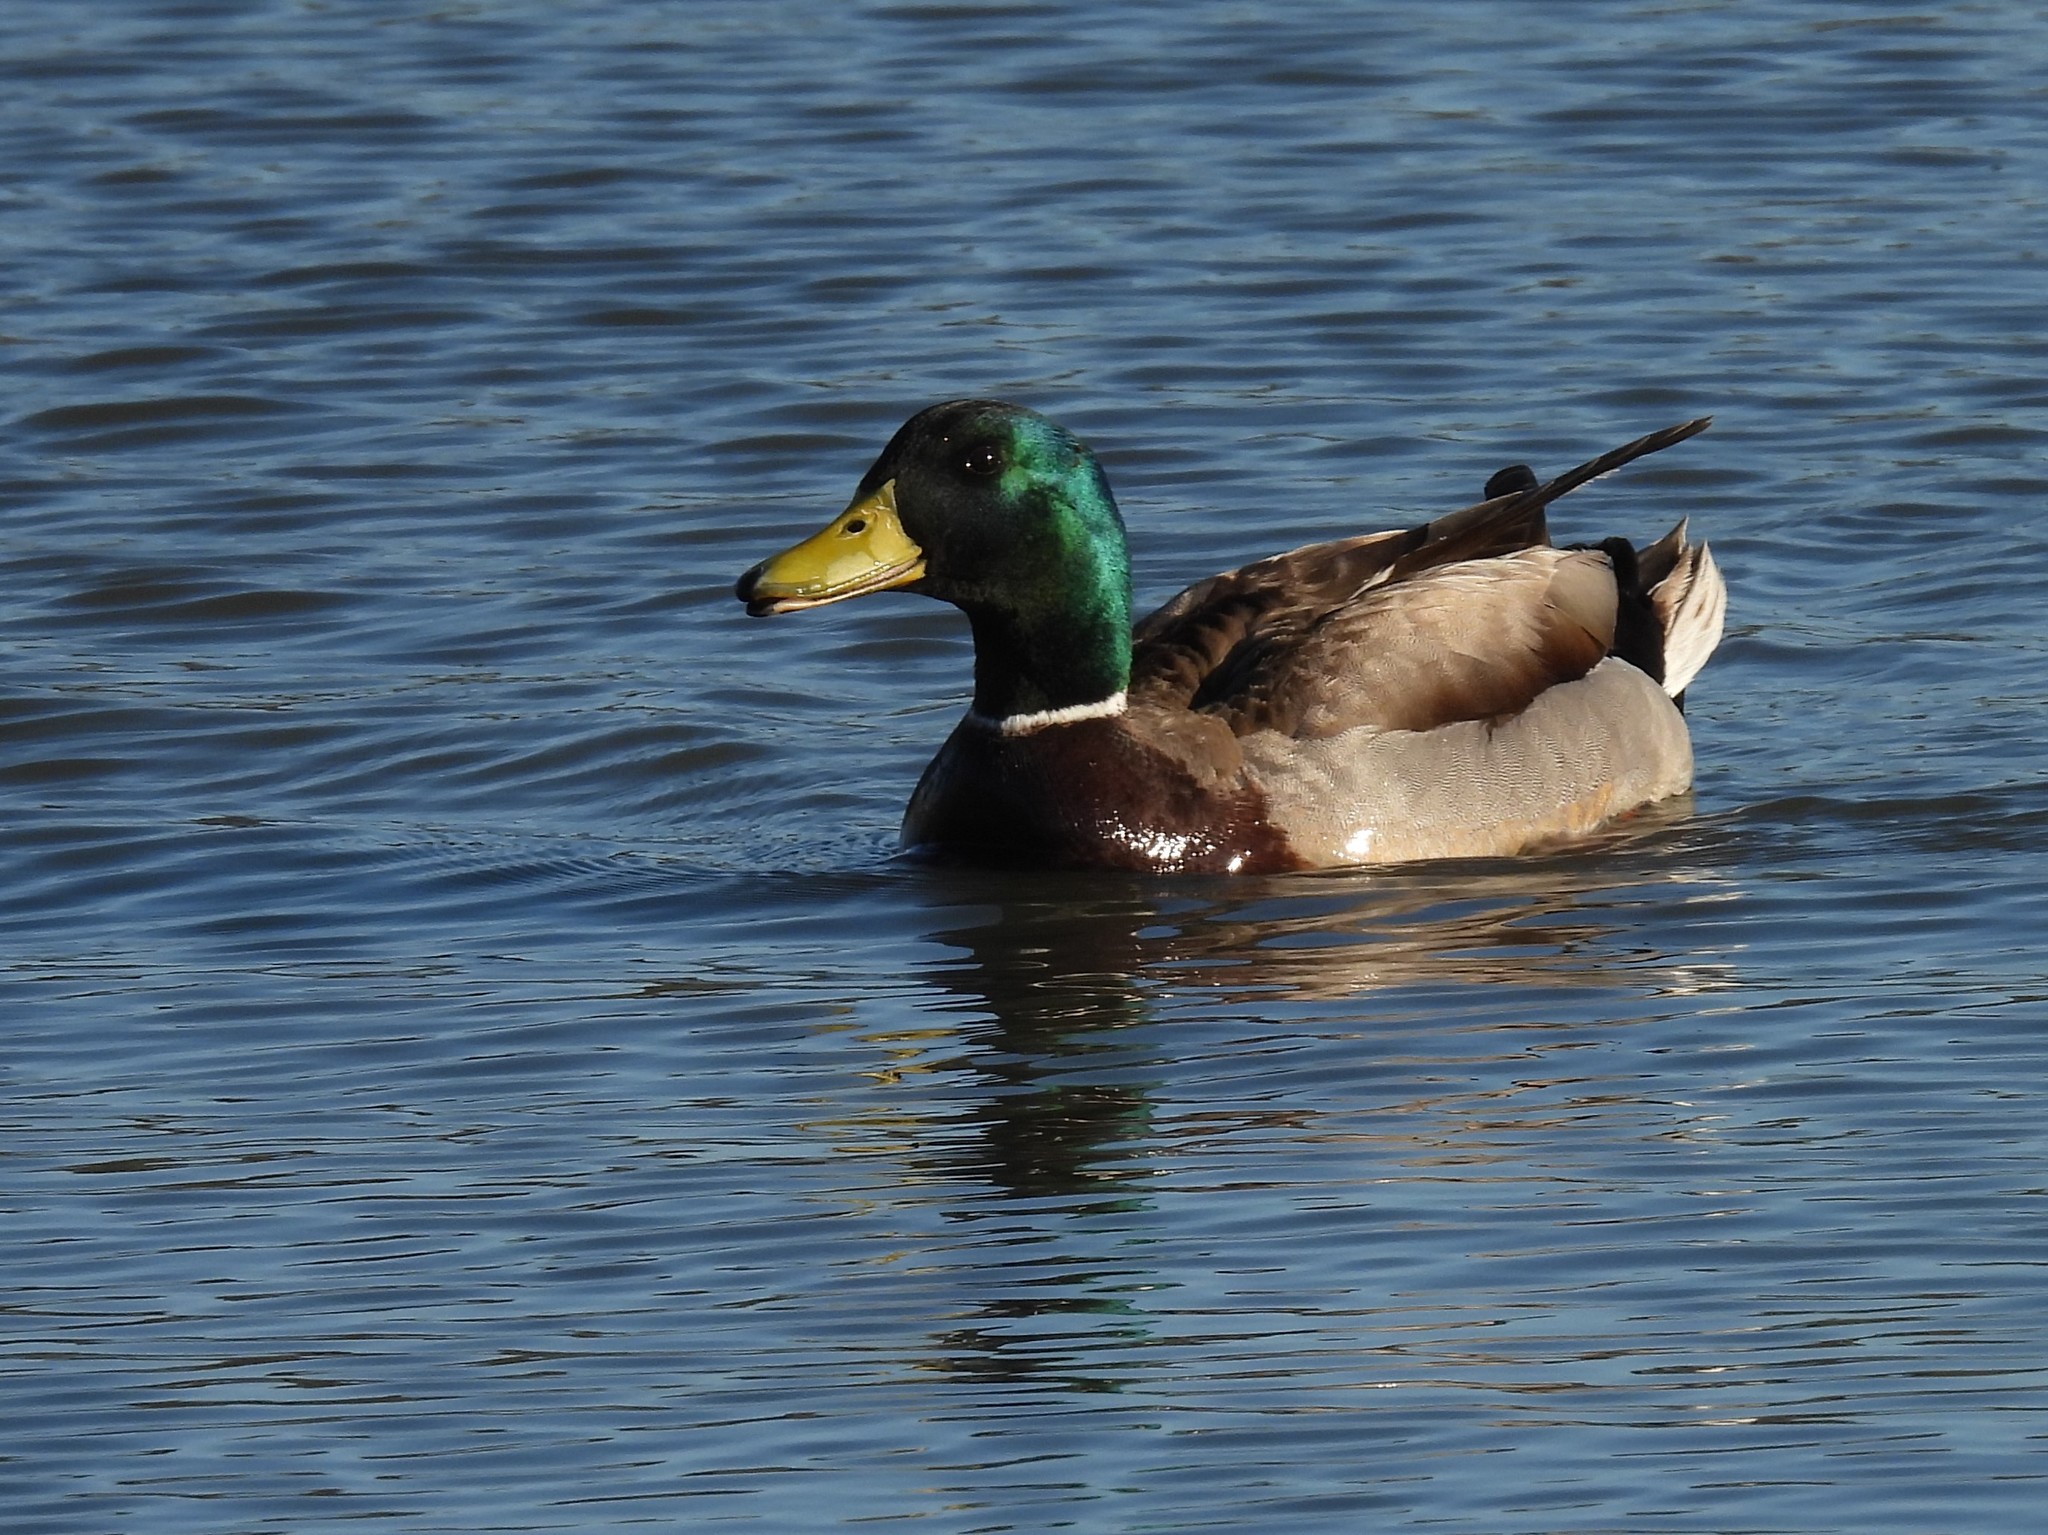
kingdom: Animalia
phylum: Chordata
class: Aves
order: Anseriformes
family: Anatidae
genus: Anas
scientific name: Anas platyrhynchos
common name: Mallard
